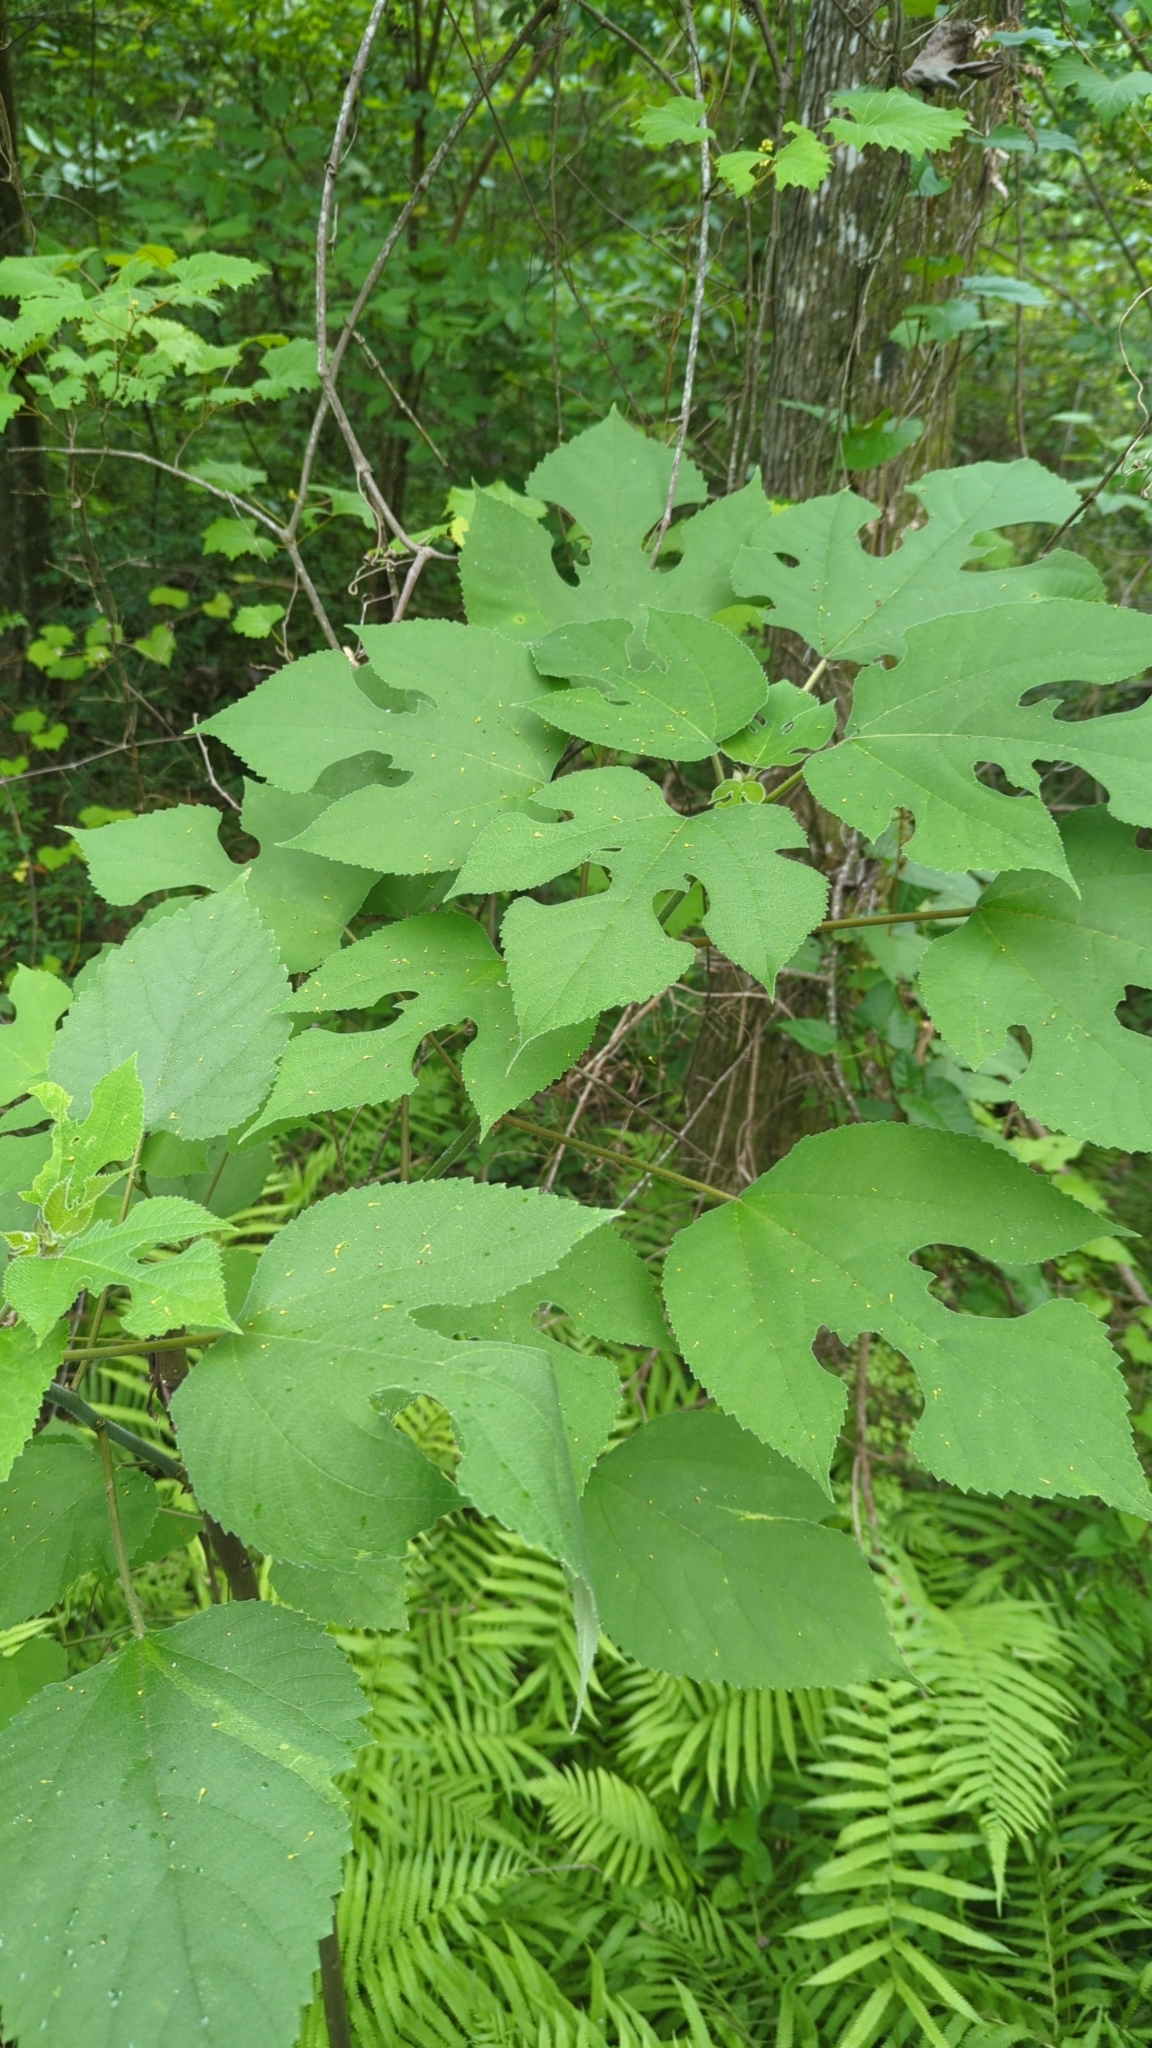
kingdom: Plantae
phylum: Tracheophyta
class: Magnoliopsida
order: Rosales
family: Moraceae
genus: Broussonetia
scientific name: Broussonetia papyrifera
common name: Paper mulberry
